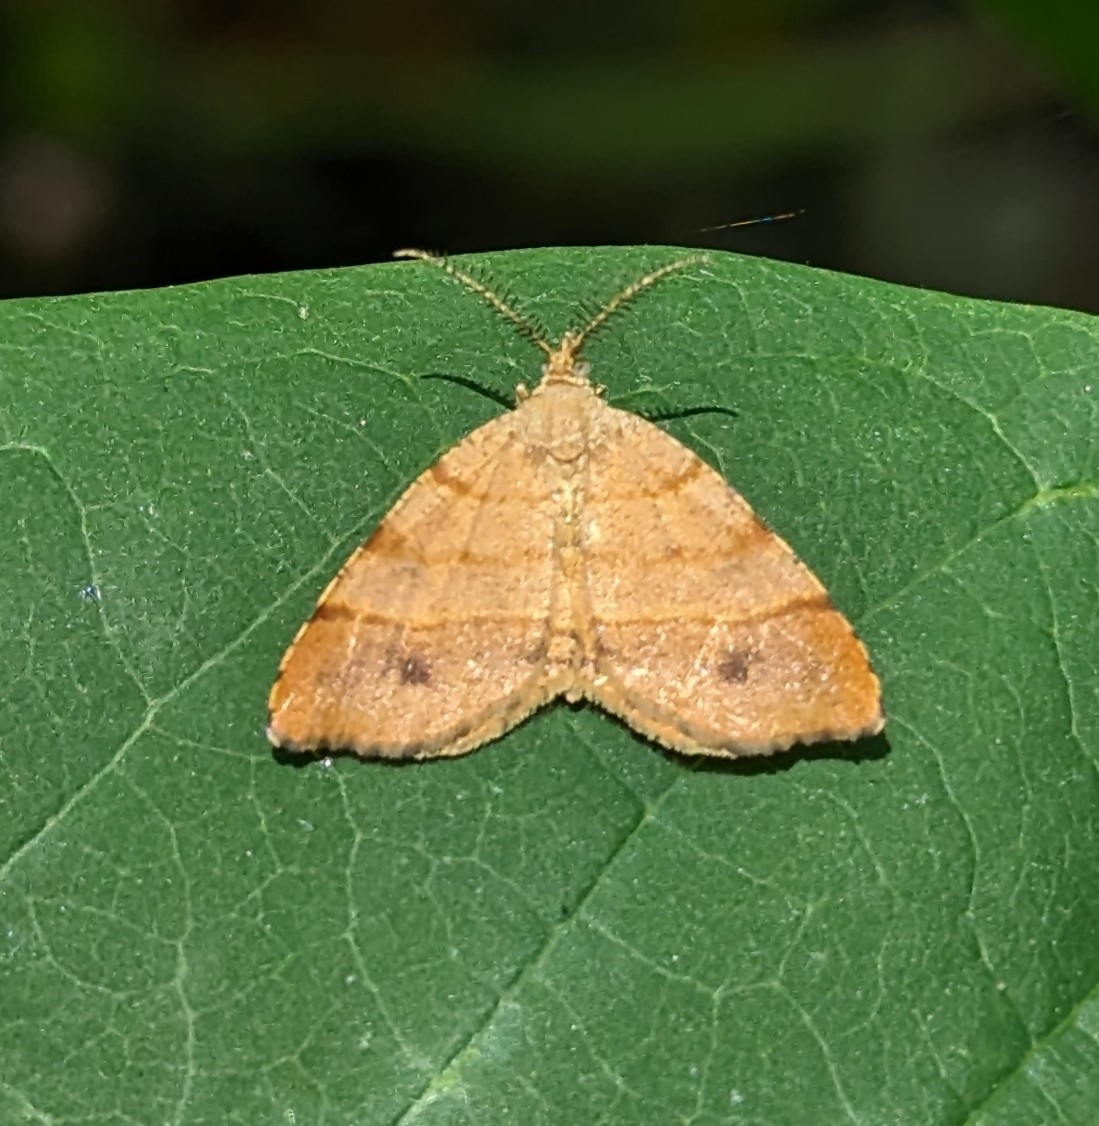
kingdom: Animalia
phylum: Arthropoda
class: Insecta
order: Lepidoptera
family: Geometridae
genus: Mellilla
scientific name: Mellilla xanthometata
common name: Orange wing moth
